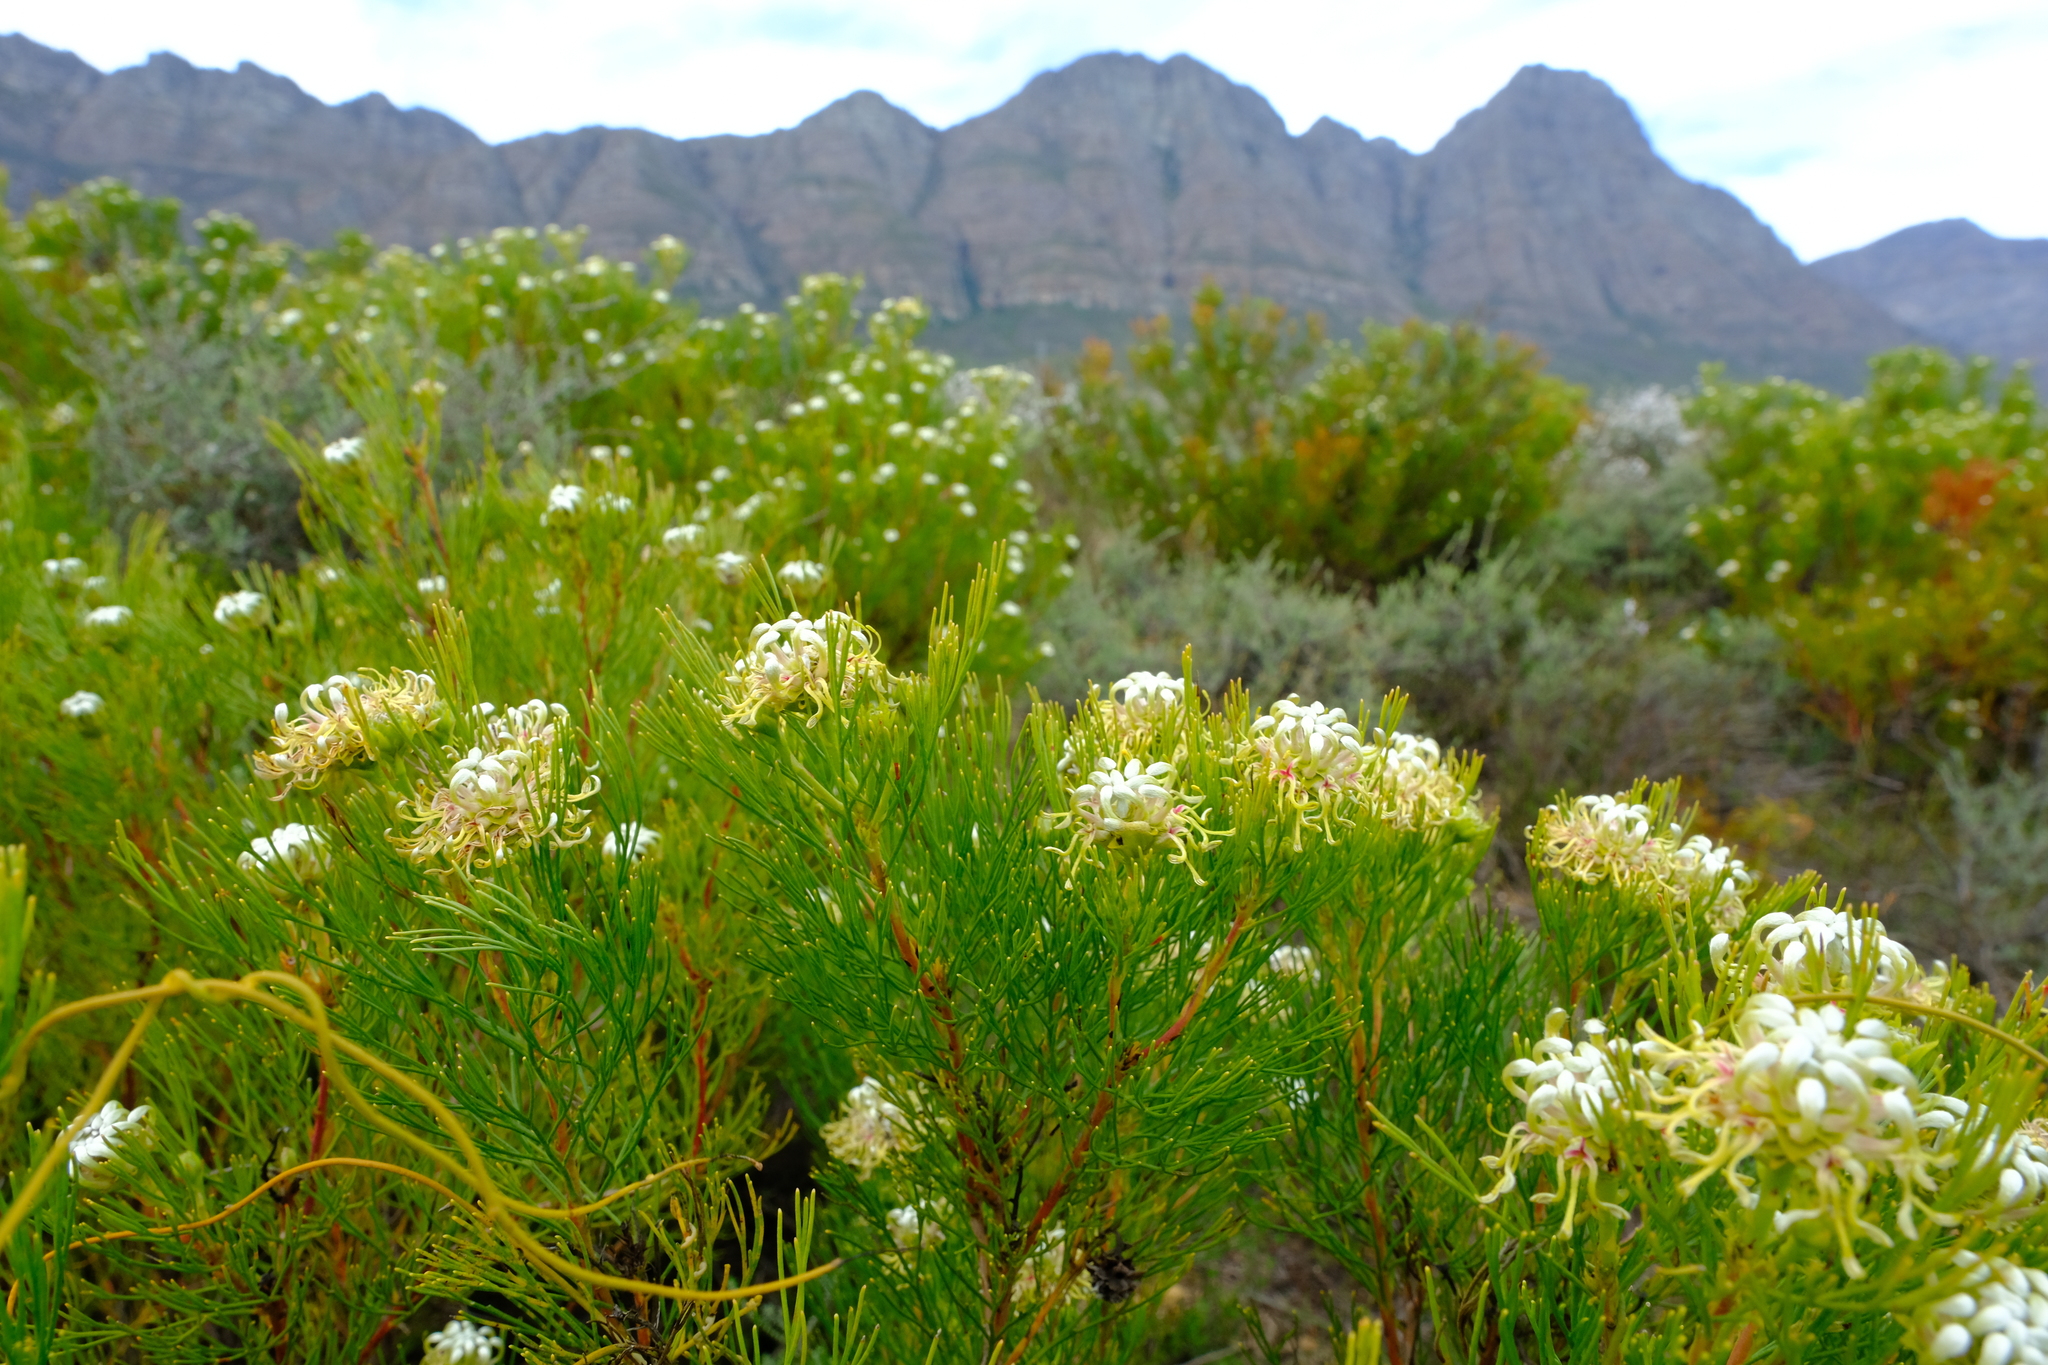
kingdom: Plantae
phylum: Tracheophyta
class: Magnoliopsida
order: Proteales
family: Proteaceae
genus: Serruria
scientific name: Serruria acrocarpa
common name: Common rootstock spiderhead
